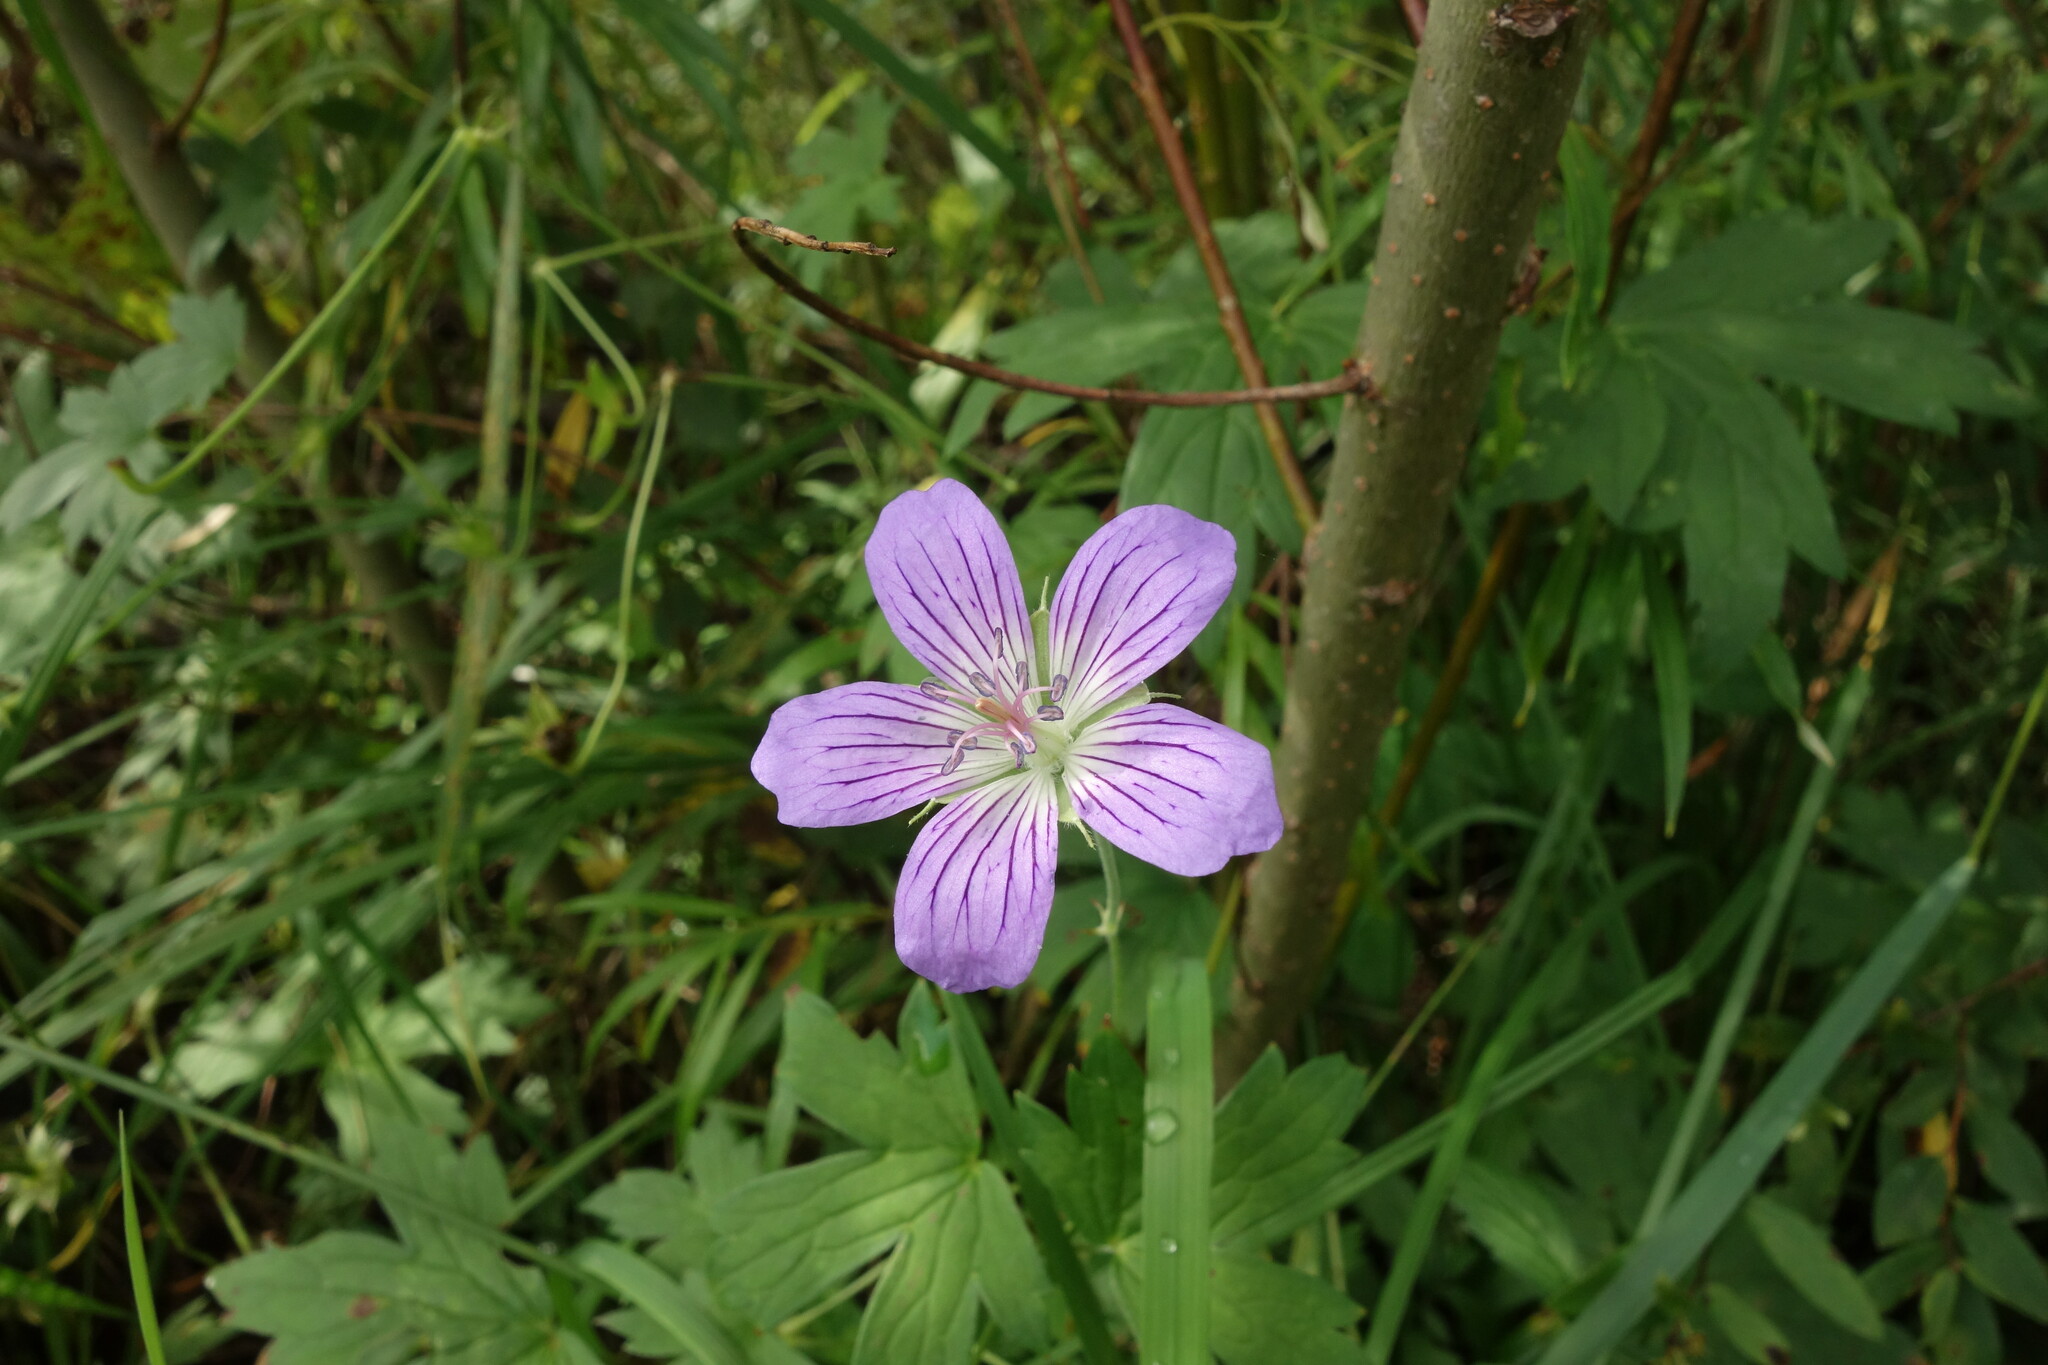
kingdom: Plantae
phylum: Tracheophyta
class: Magnoliopsida
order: Geraniales
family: Geraniaceae
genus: Geranium
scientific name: Geranium wlassovianum
